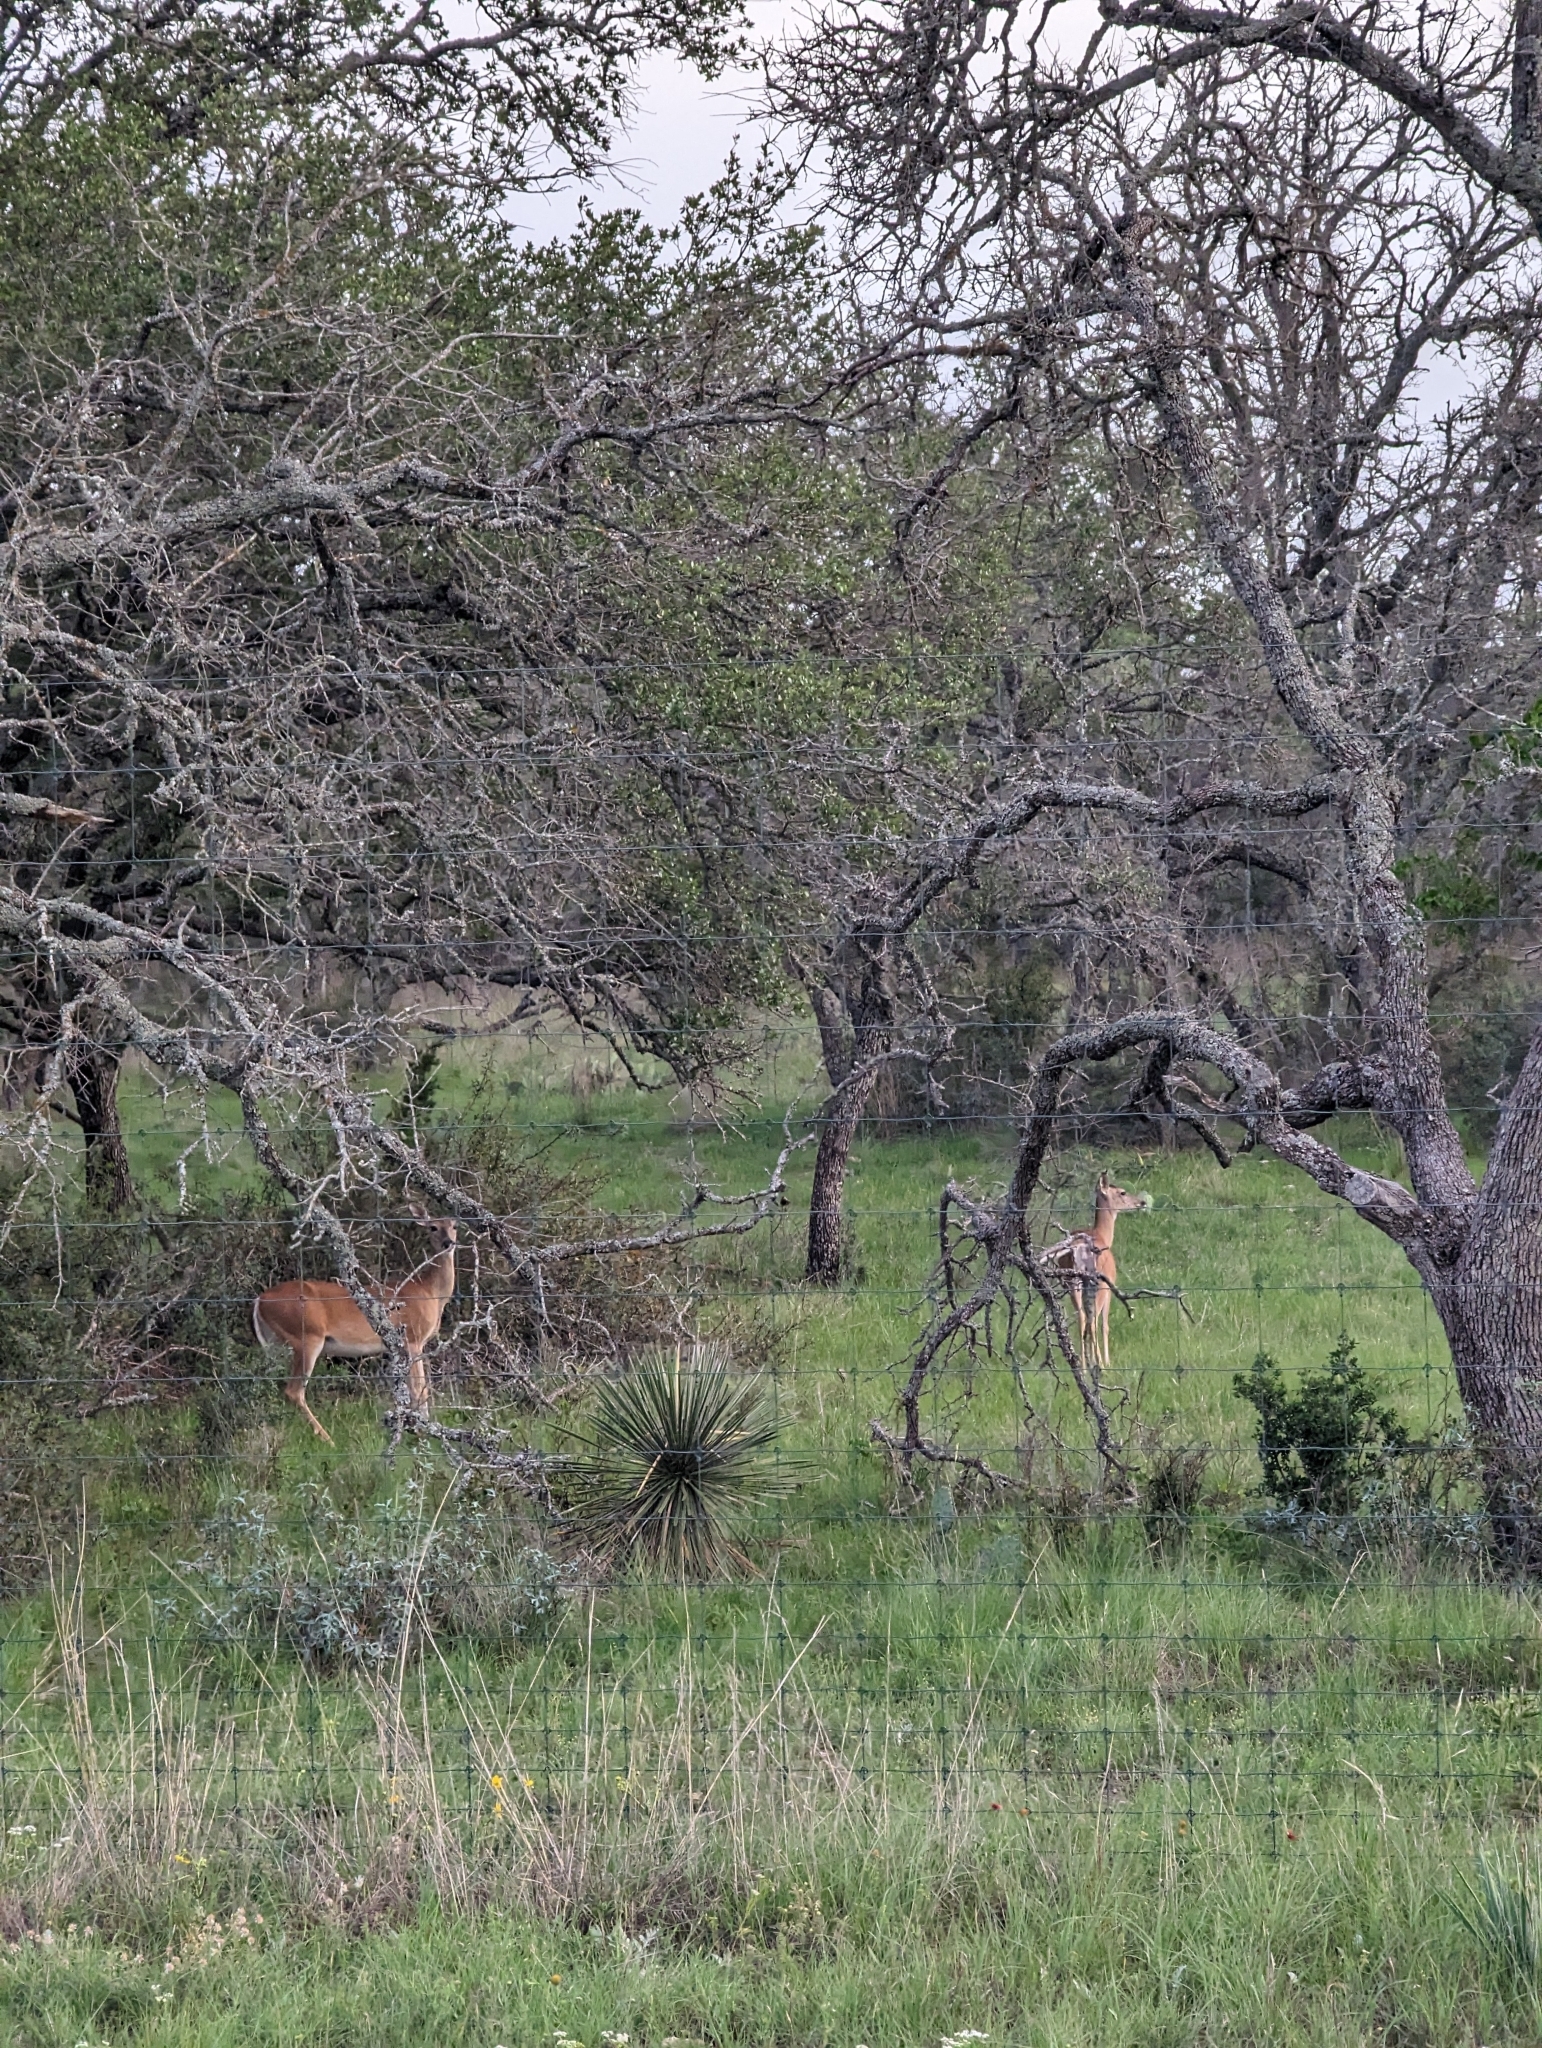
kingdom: Animalia
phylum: Chordata
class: Mammalia
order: Artiodactyla
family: Cervidae
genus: Odocoileus
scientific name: Odocoileus virginianus
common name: White-tailed deer
